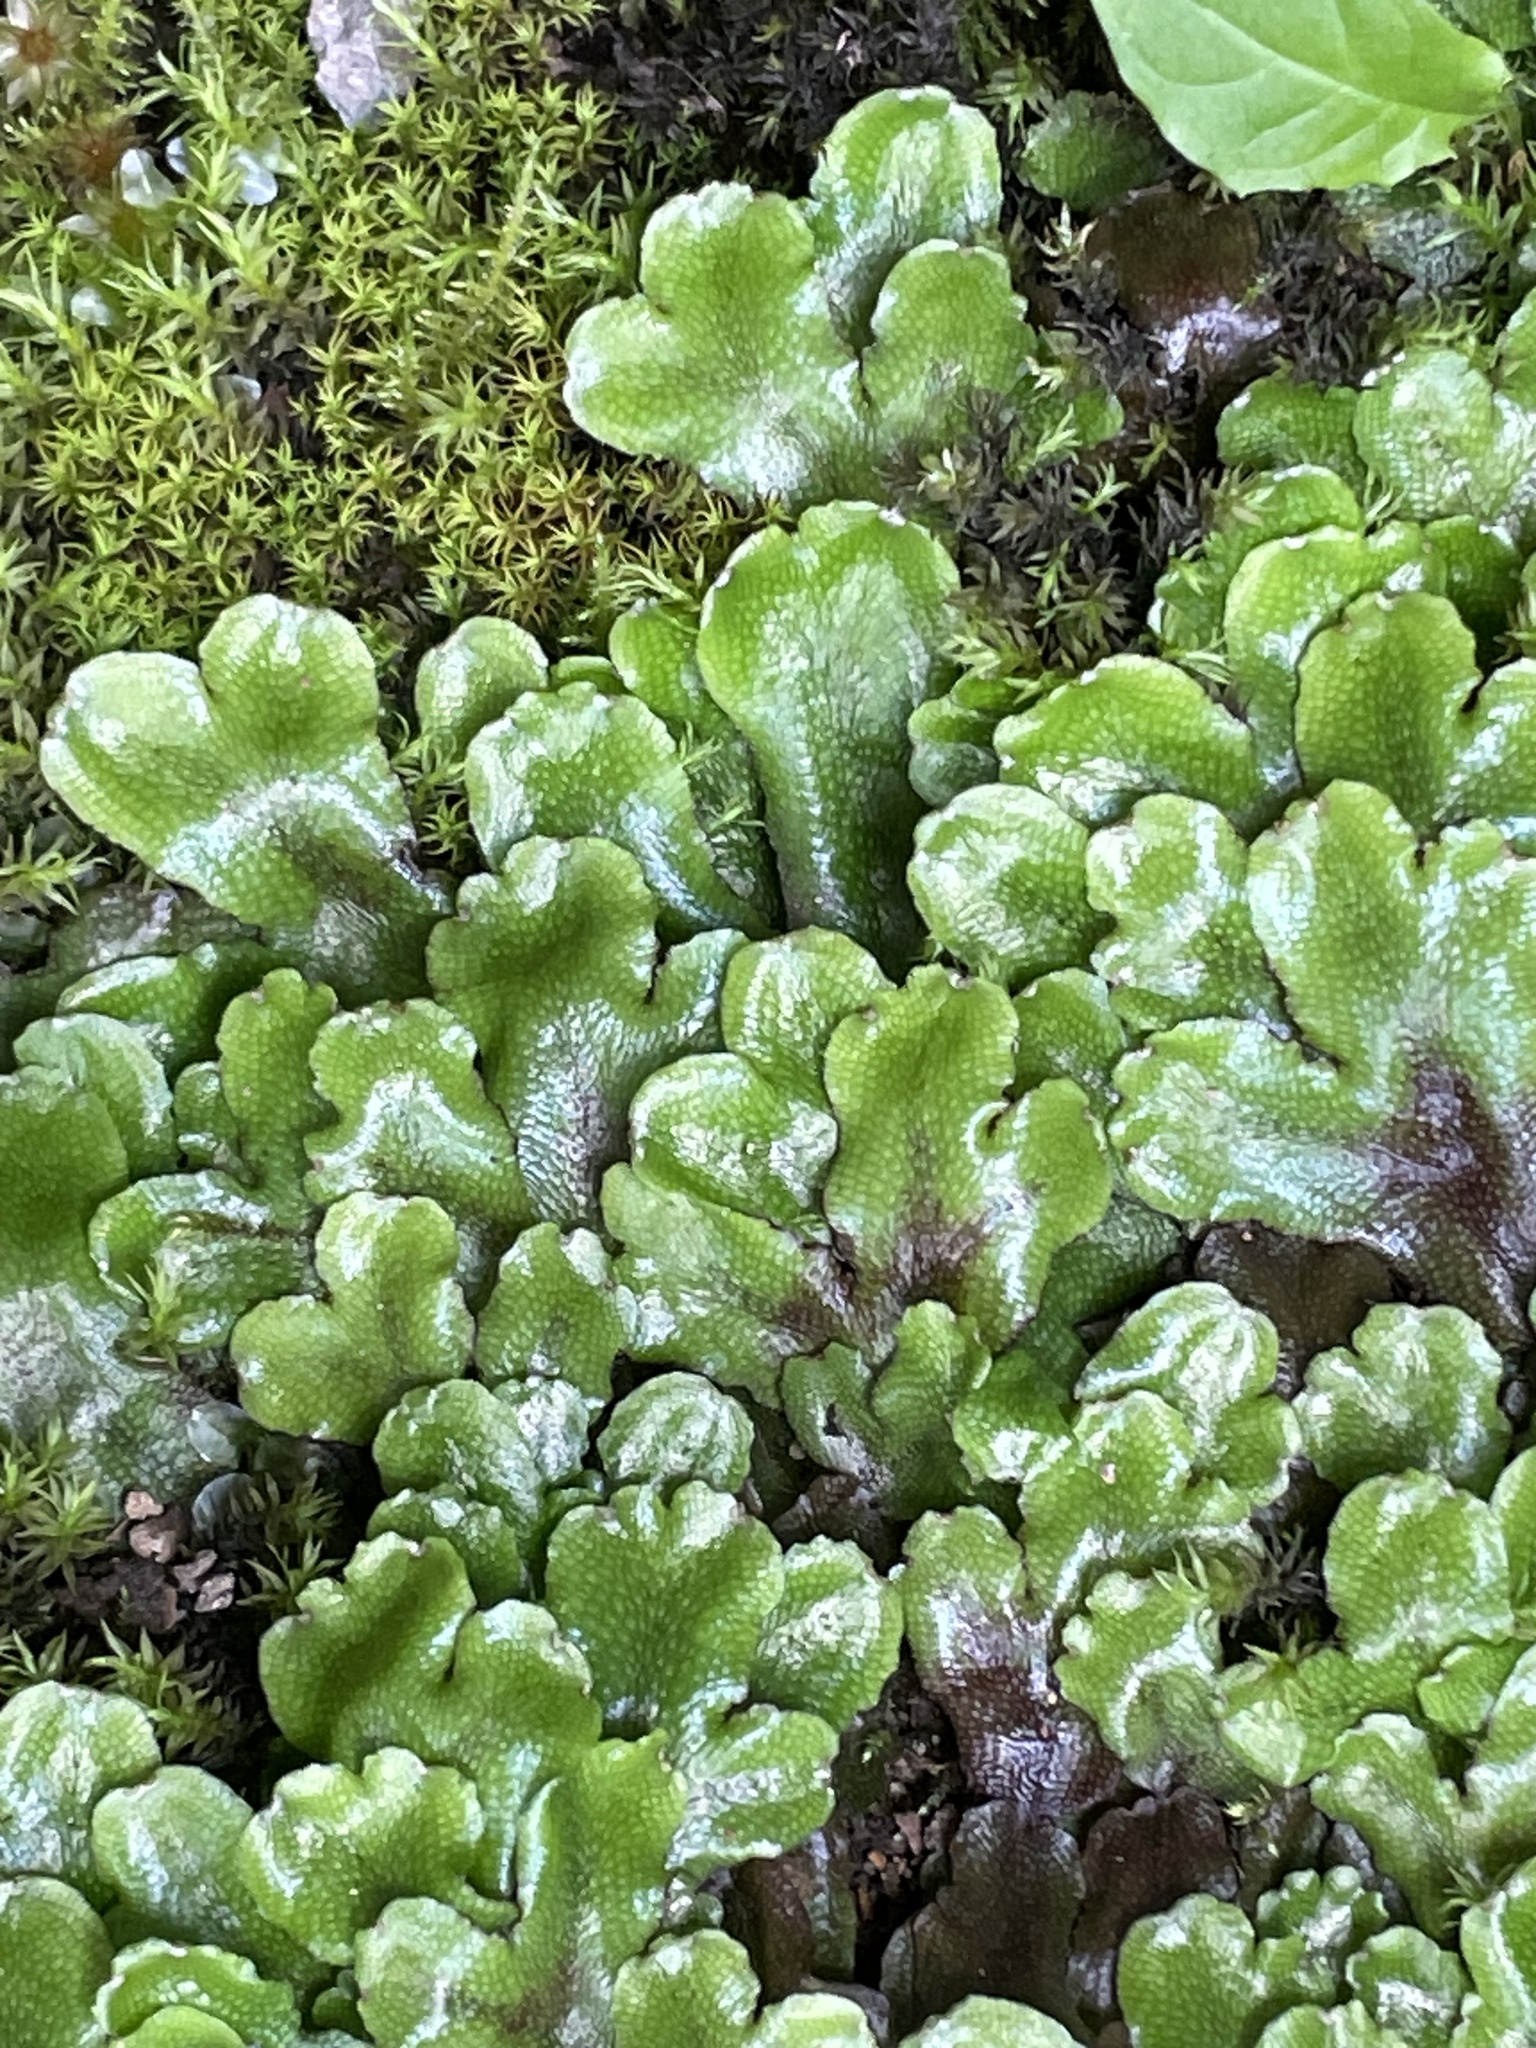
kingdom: Plantae
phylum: Marchantiophyta
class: Marchantiopsida
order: Marchantiales
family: Conocephalaceae
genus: Conocephalum
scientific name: Conocephalum salebrosum
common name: Cat-tongue liverwort
